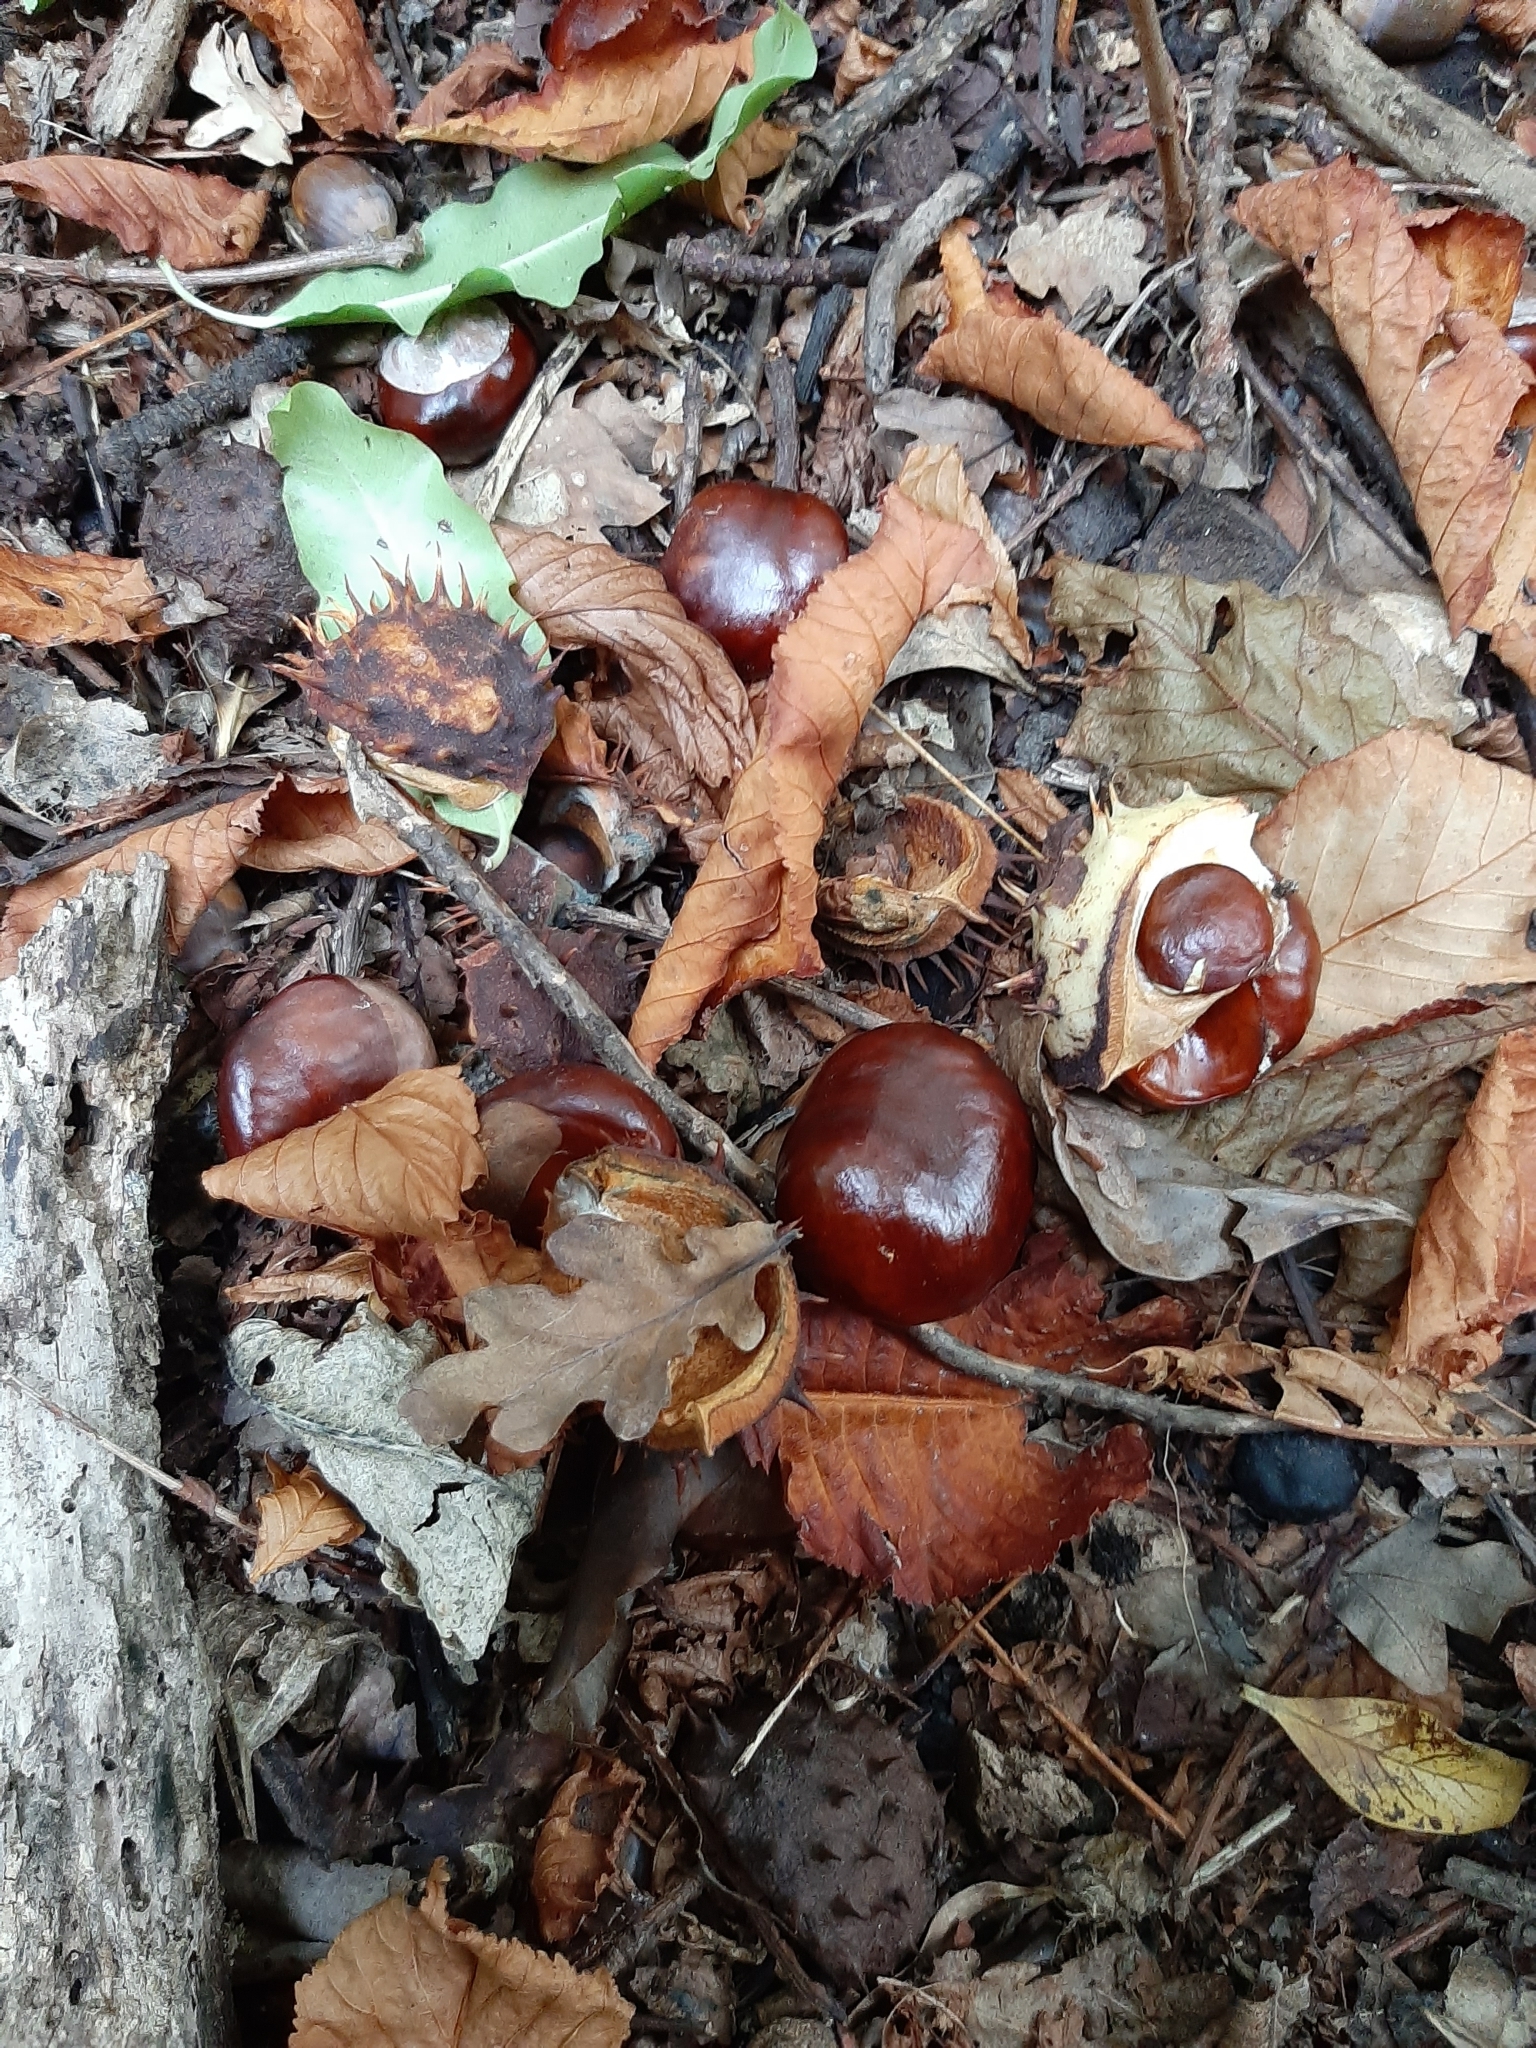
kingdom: Plantae
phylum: Tracheophyta
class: Magnoliopsida
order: Sapindales
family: Sapindaceae
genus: Aesculus
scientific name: Aesculus hippocastanum
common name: Horse-chestnut
